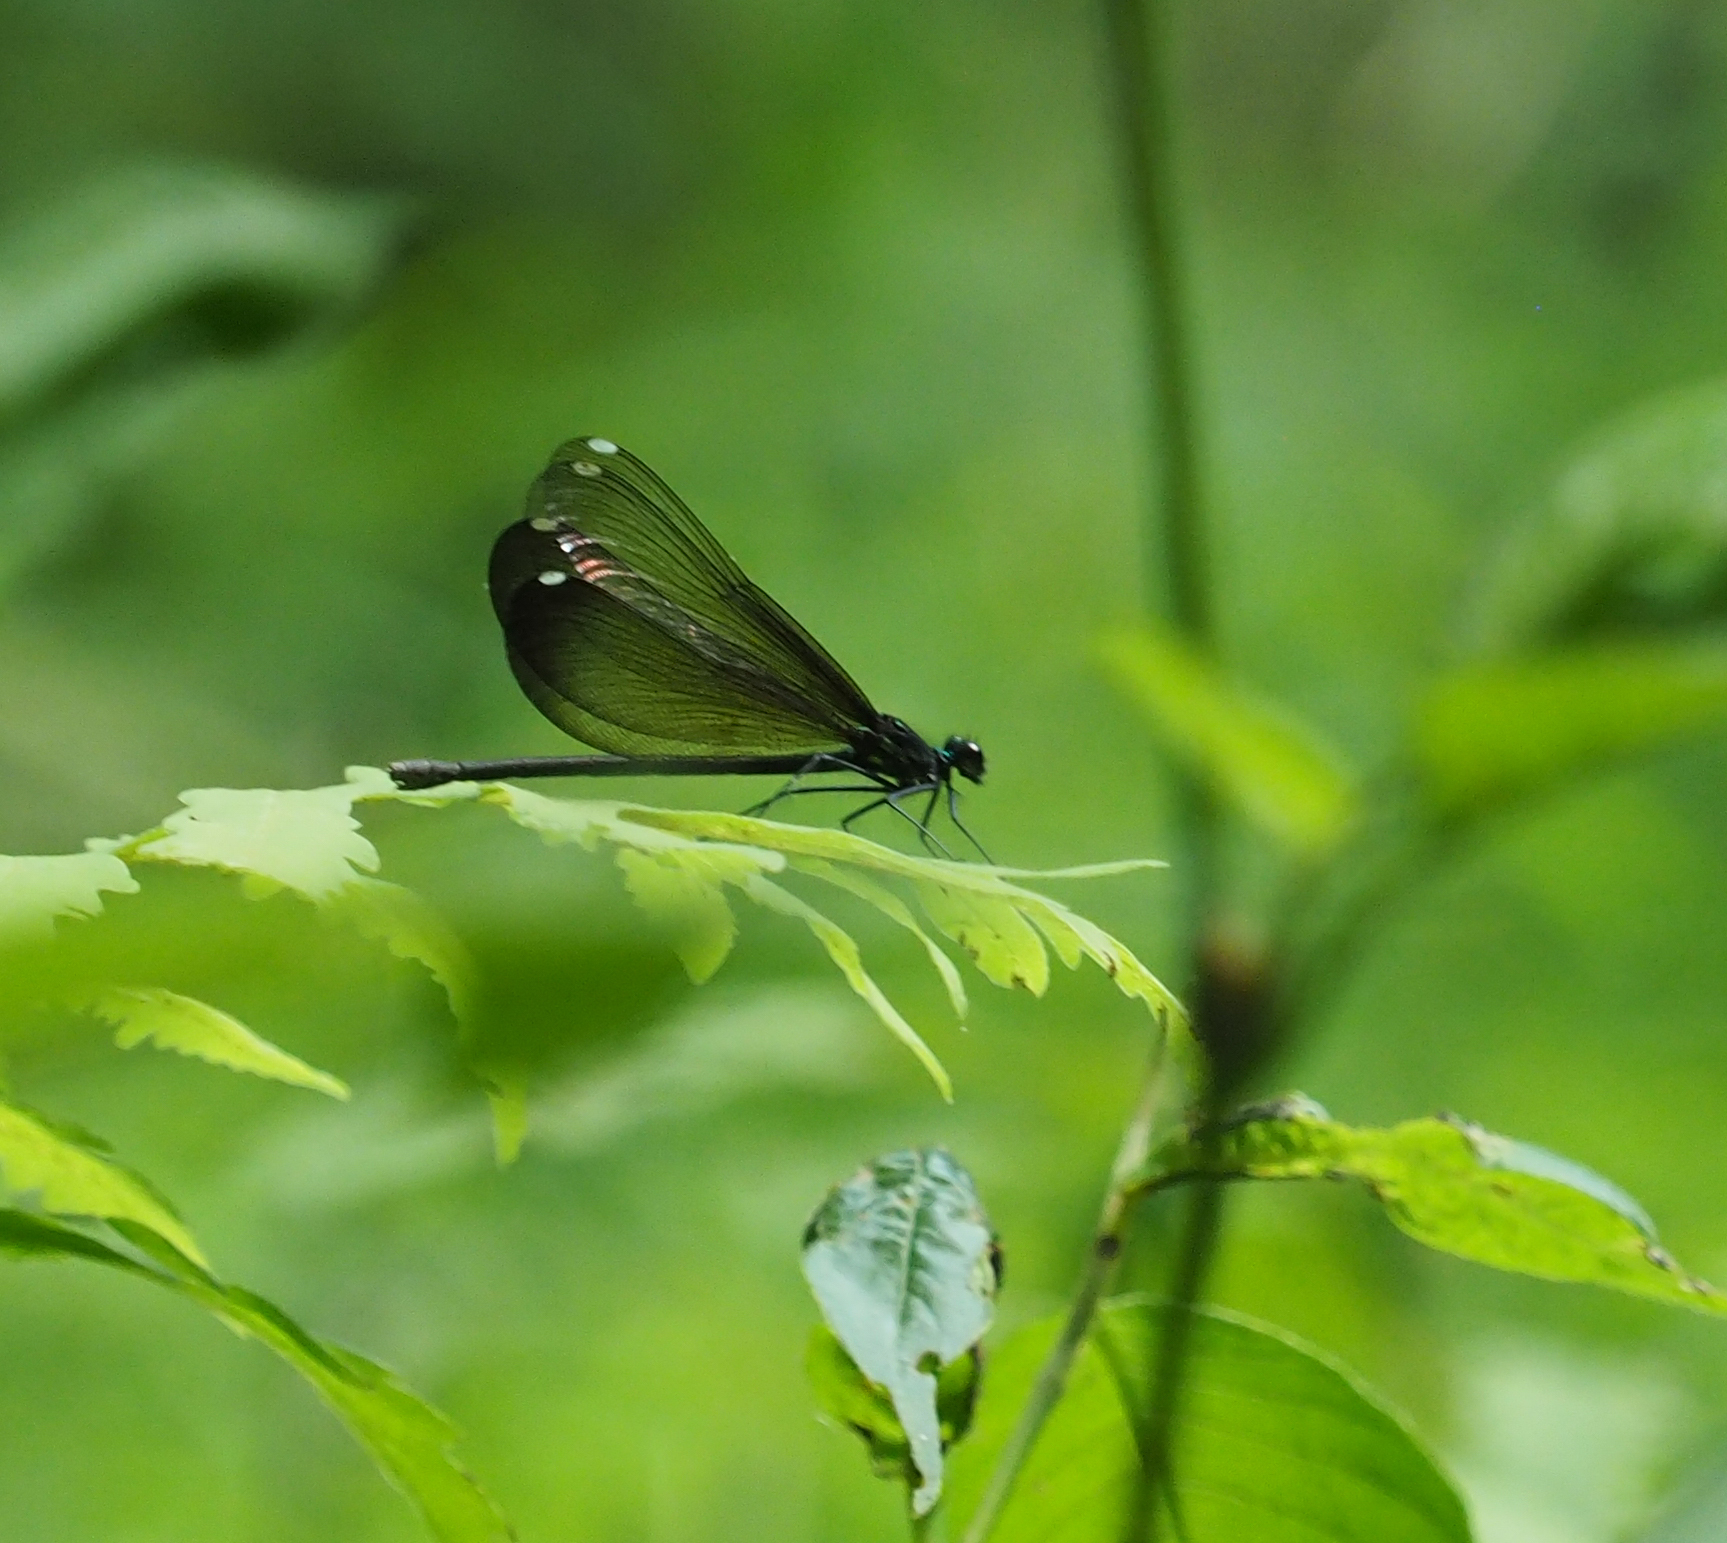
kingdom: Animalia
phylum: Arthropoda
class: Insecta
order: Odonata
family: Calopterygidae
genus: Calopteryx
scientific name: Calopteryx maculata
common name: Ebony jewelwing
